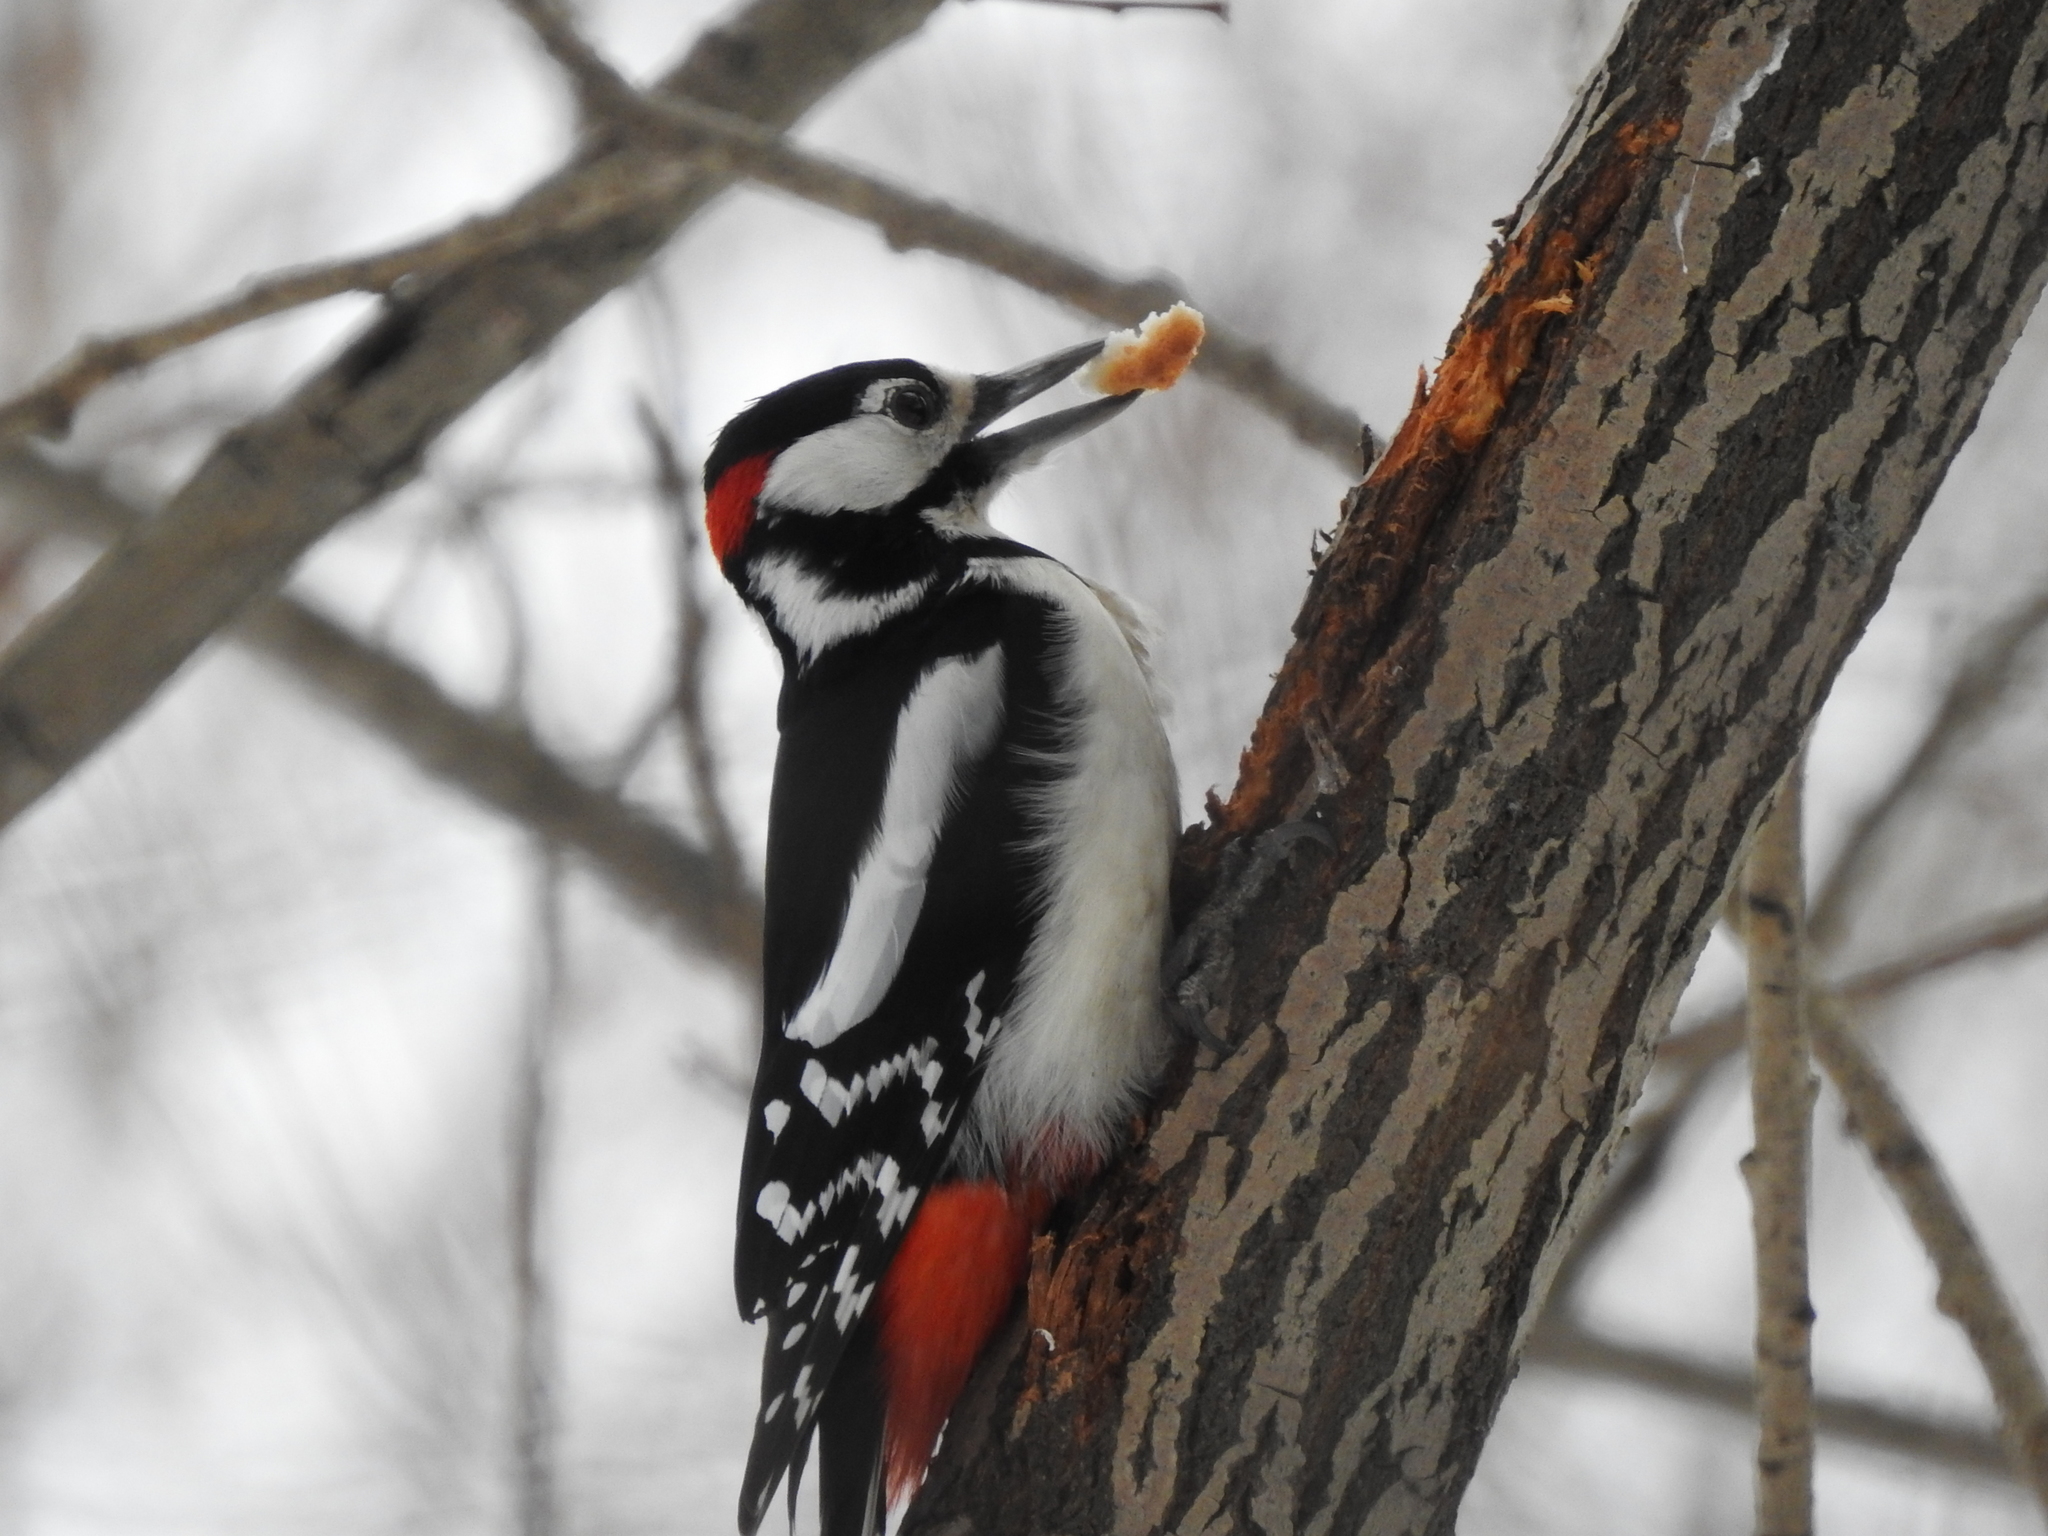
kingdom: Animalia
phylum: Chordata
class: Aves
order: Piciformes
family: Picidae
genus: Dendrocopos
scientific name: Dendrocopos major
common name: Great spotted woodpecker
